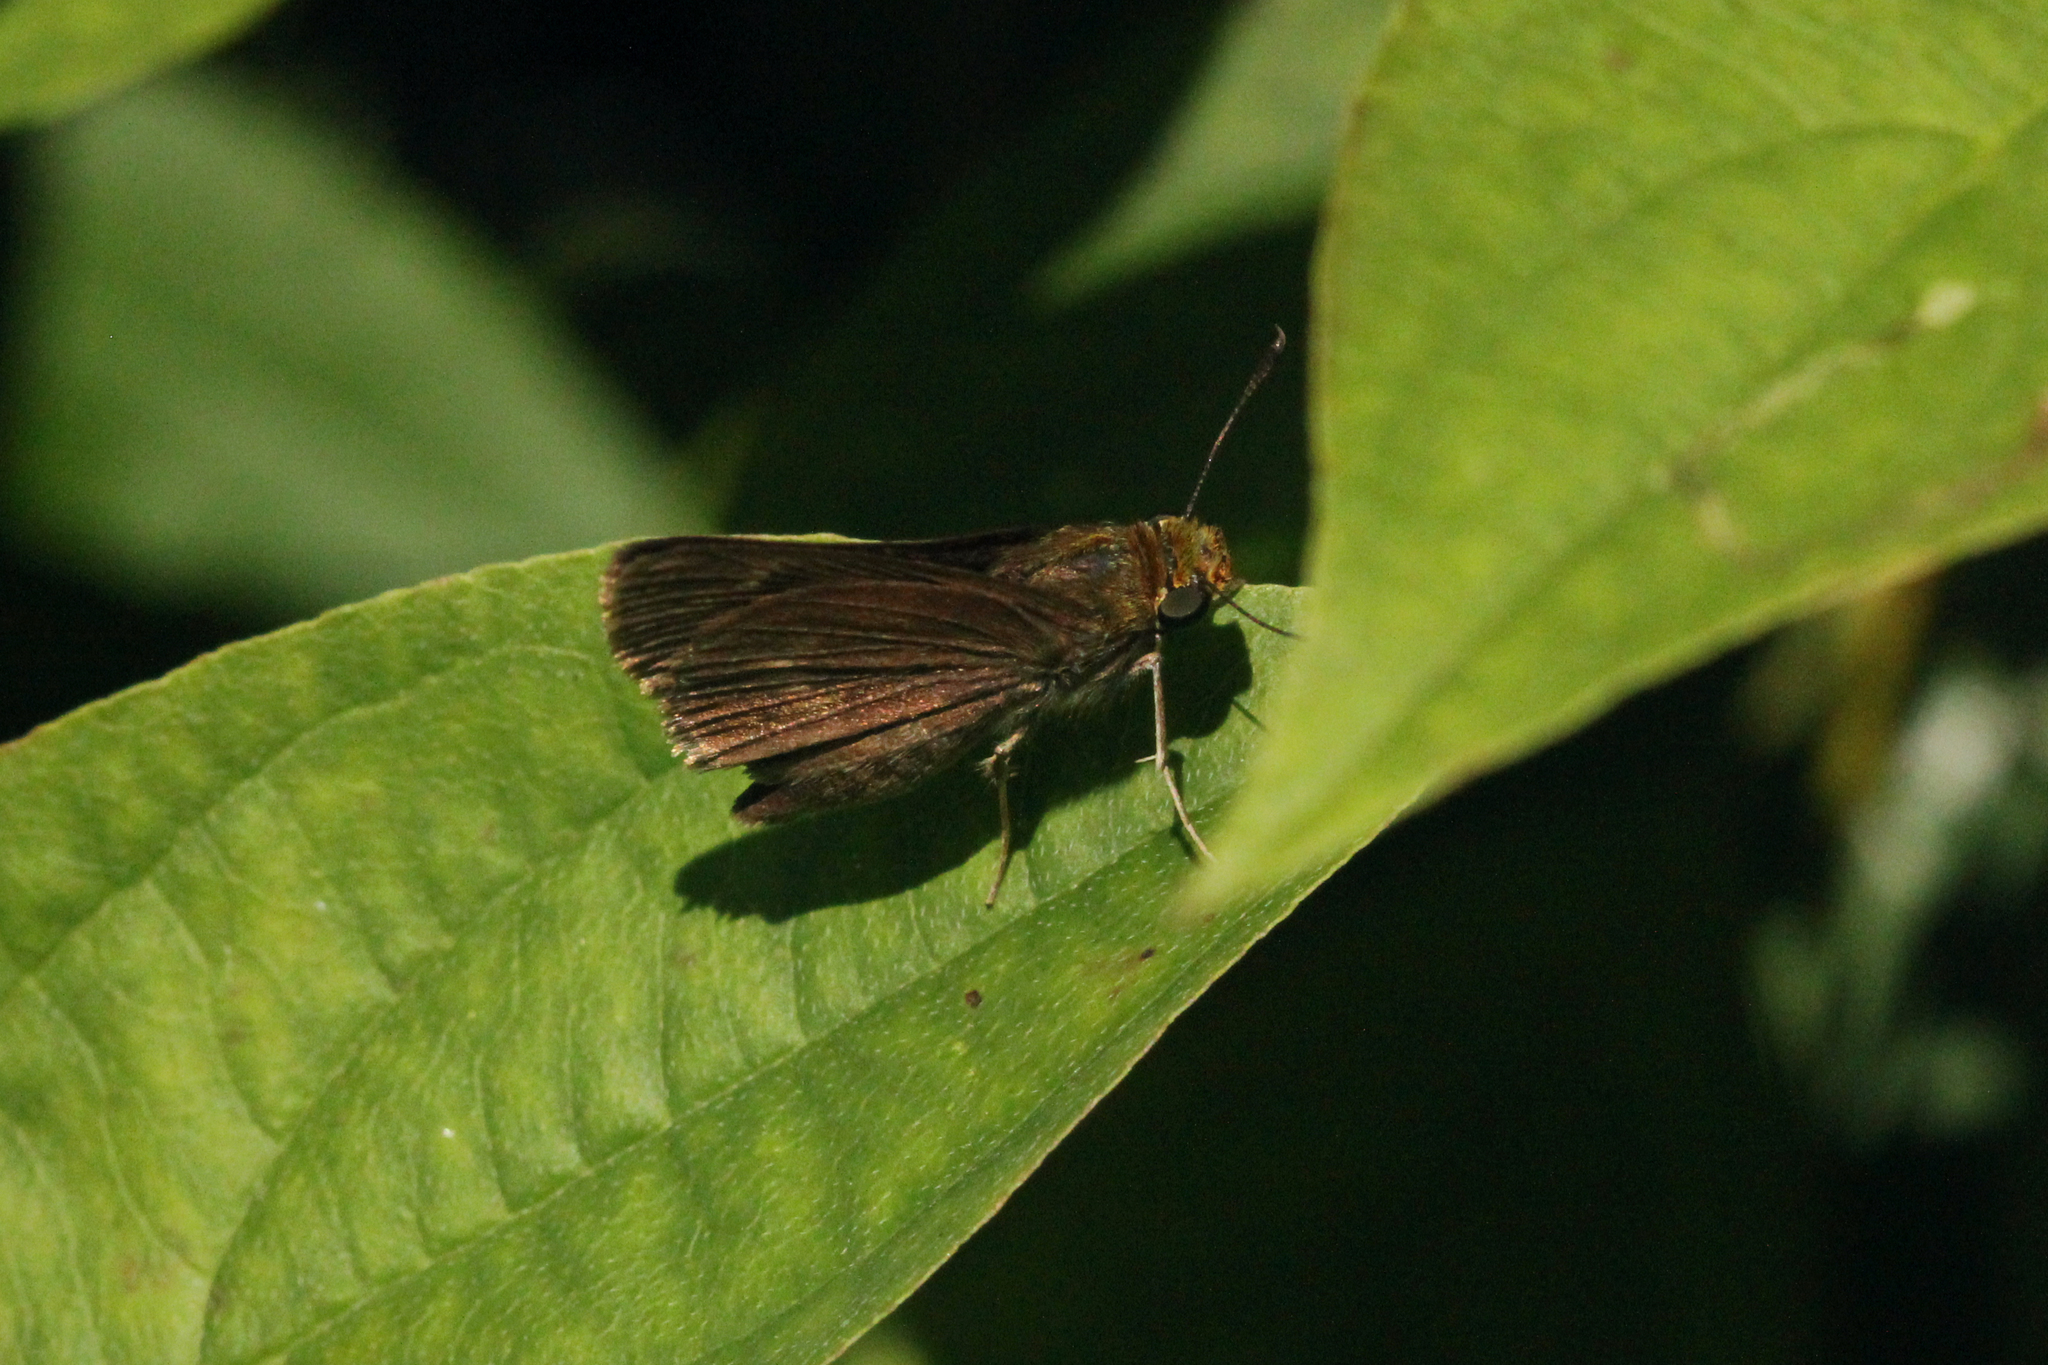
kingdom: Animalia
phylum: Arthropoda
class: Insecta
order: Lepidoptera
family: Hesperiidae
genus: Euphyes
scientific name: Euphyes vestris
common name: Dun skipper
